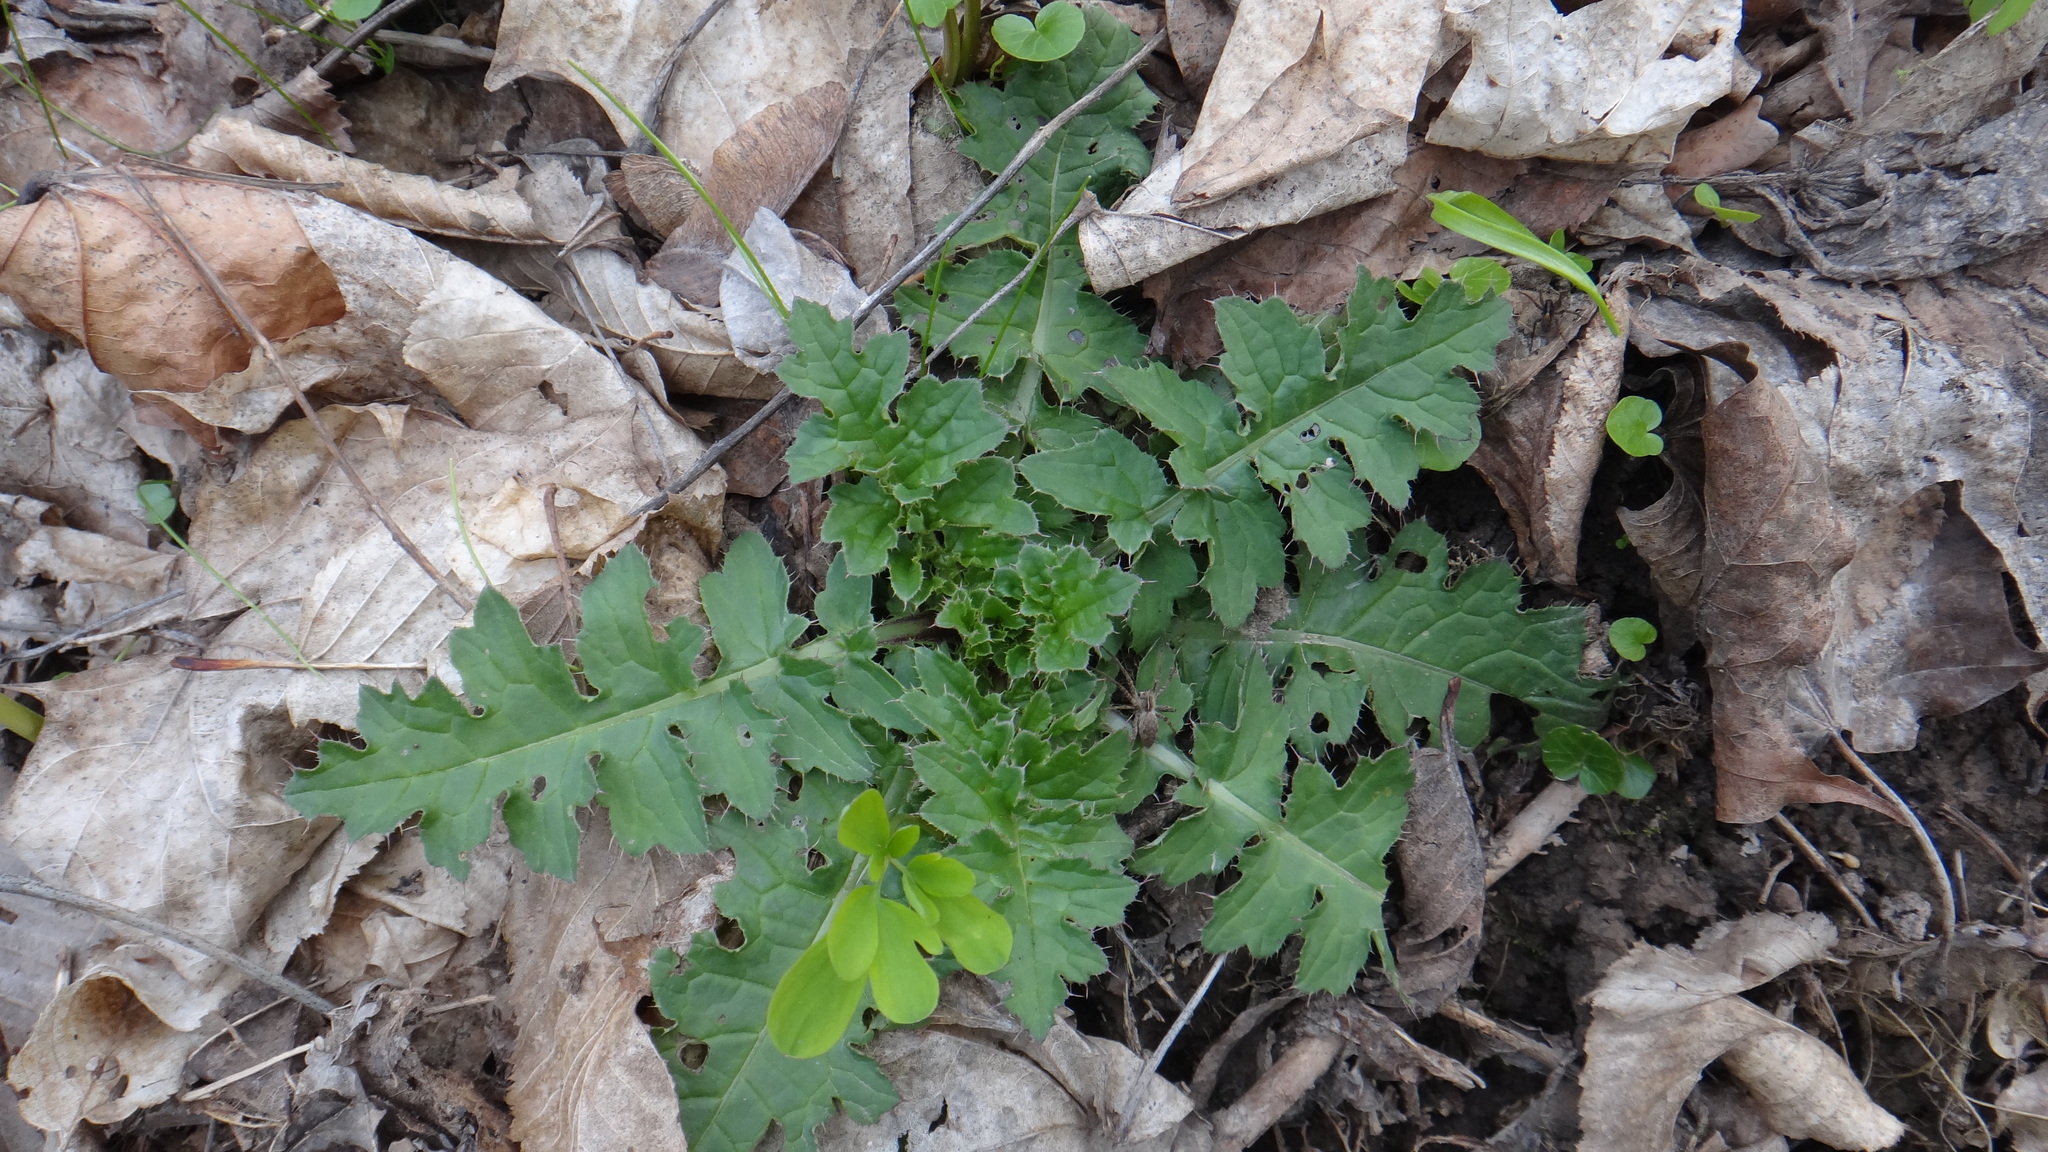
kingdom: Plantae
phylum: Tracheophyta
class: Magnoliopsida
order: Asterales
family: Asteraceae
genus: Carduus
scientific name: Carduus crispus
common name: Welted thistle
